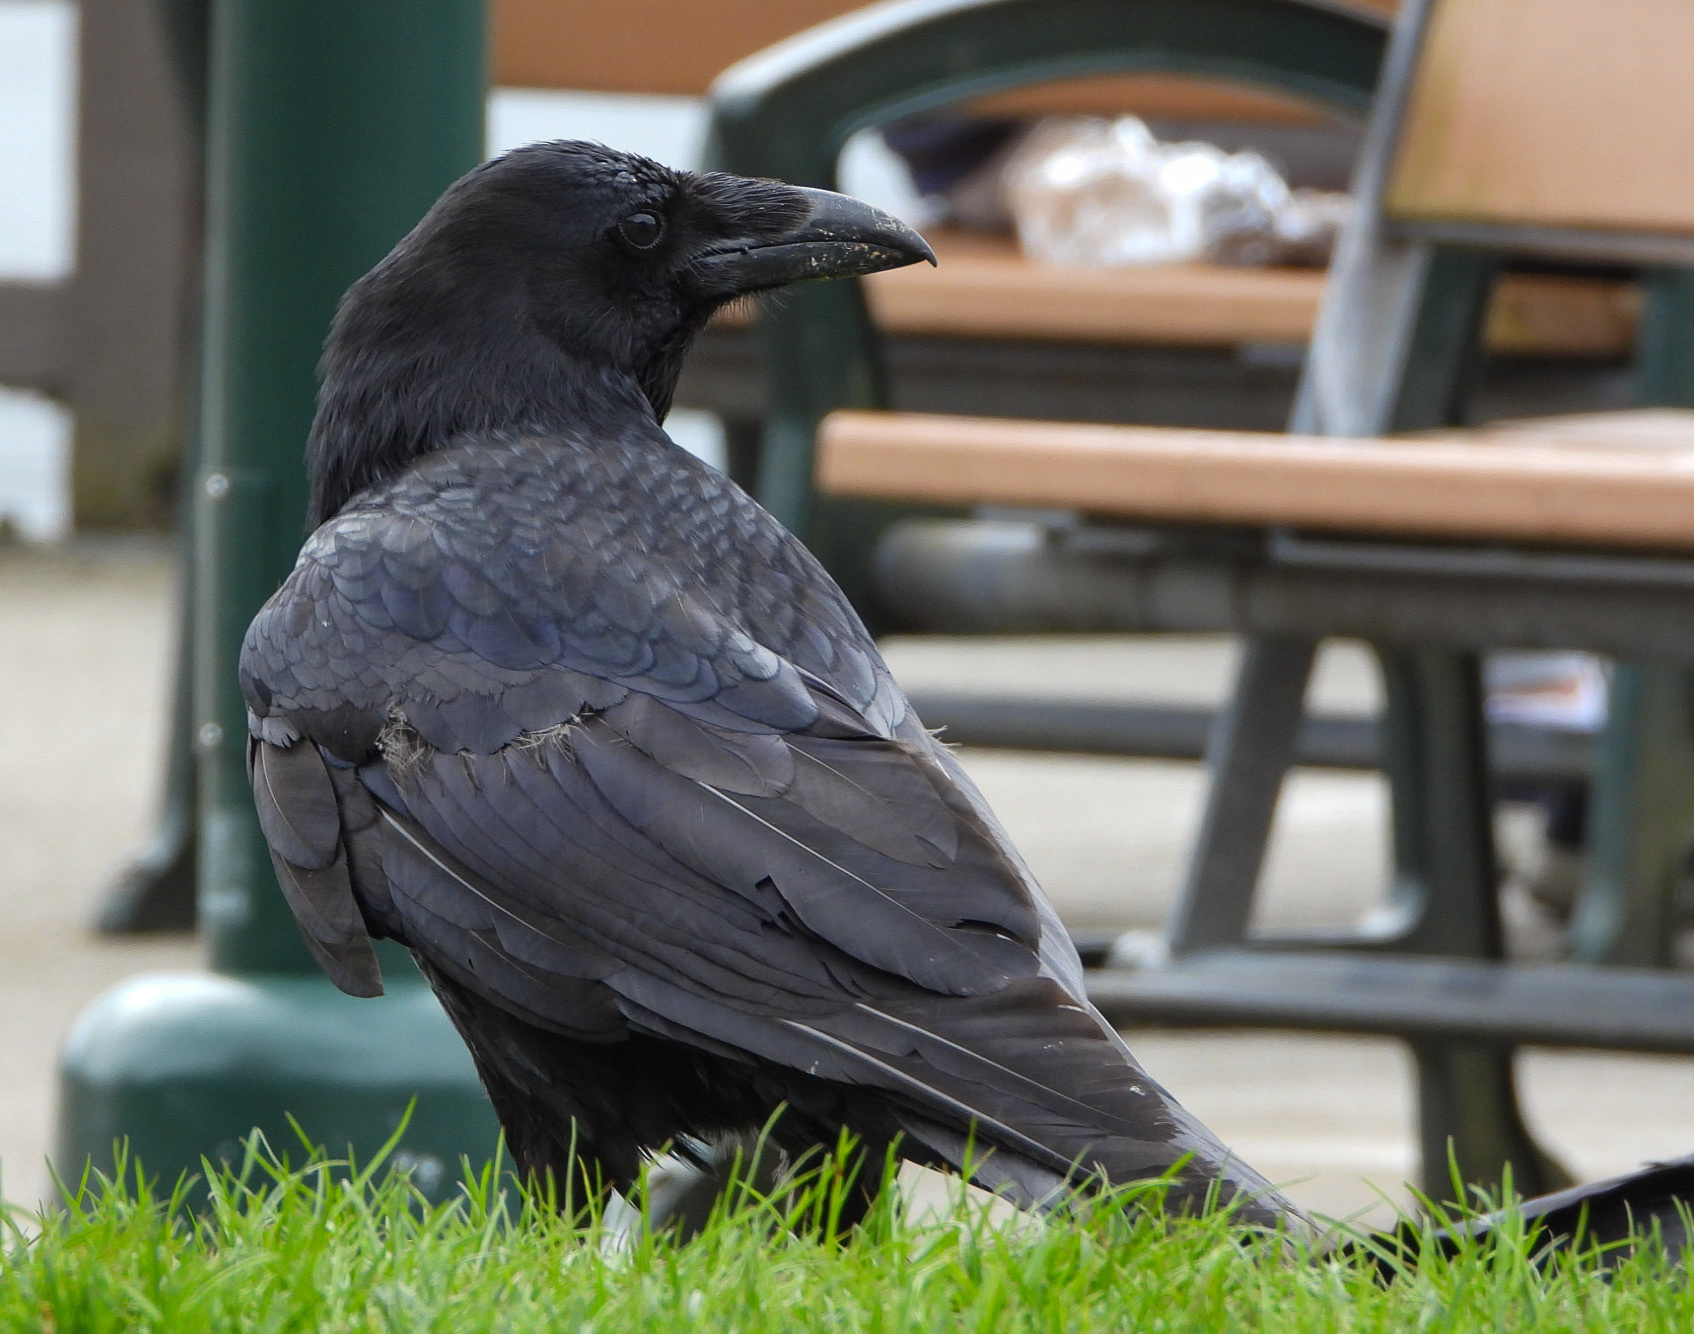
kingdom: Animalia
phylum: Chordata
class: Aves
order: Passeriformes
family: Corvidae
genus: Corvus
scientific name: Corvus corax
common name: Common raven
